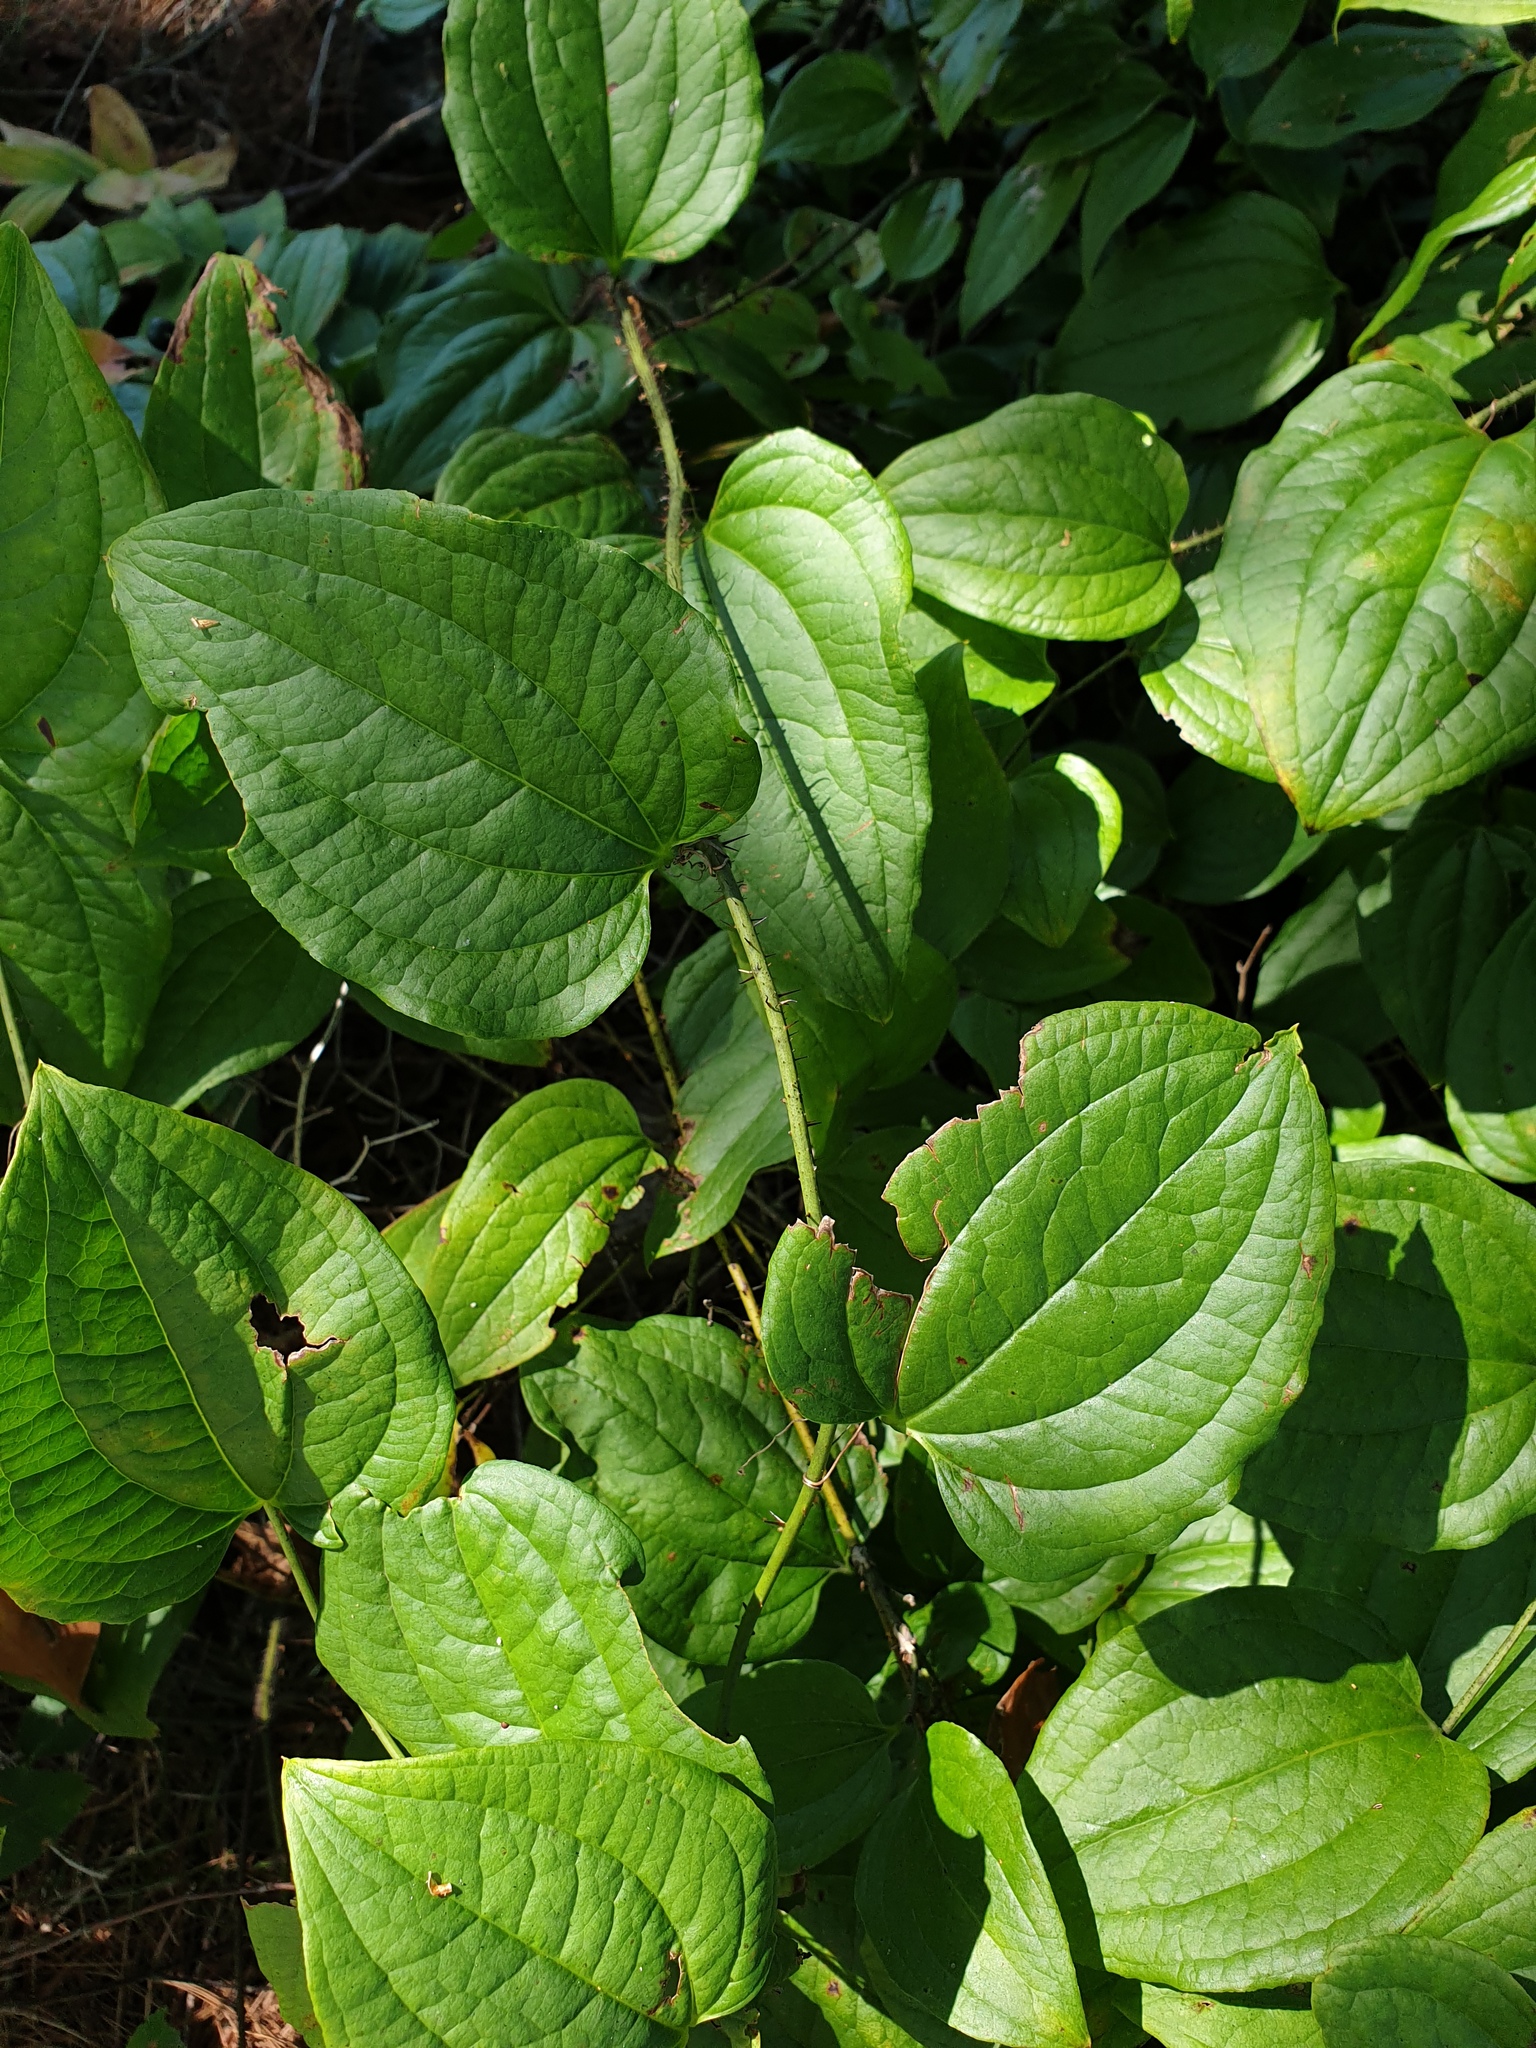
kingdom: Plantae
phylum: Tracheophyta
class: Liliopsida
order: Liliales
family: Smilacaceae
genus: Smilax
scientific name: Smilax tamnoides
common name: Hellfetter
